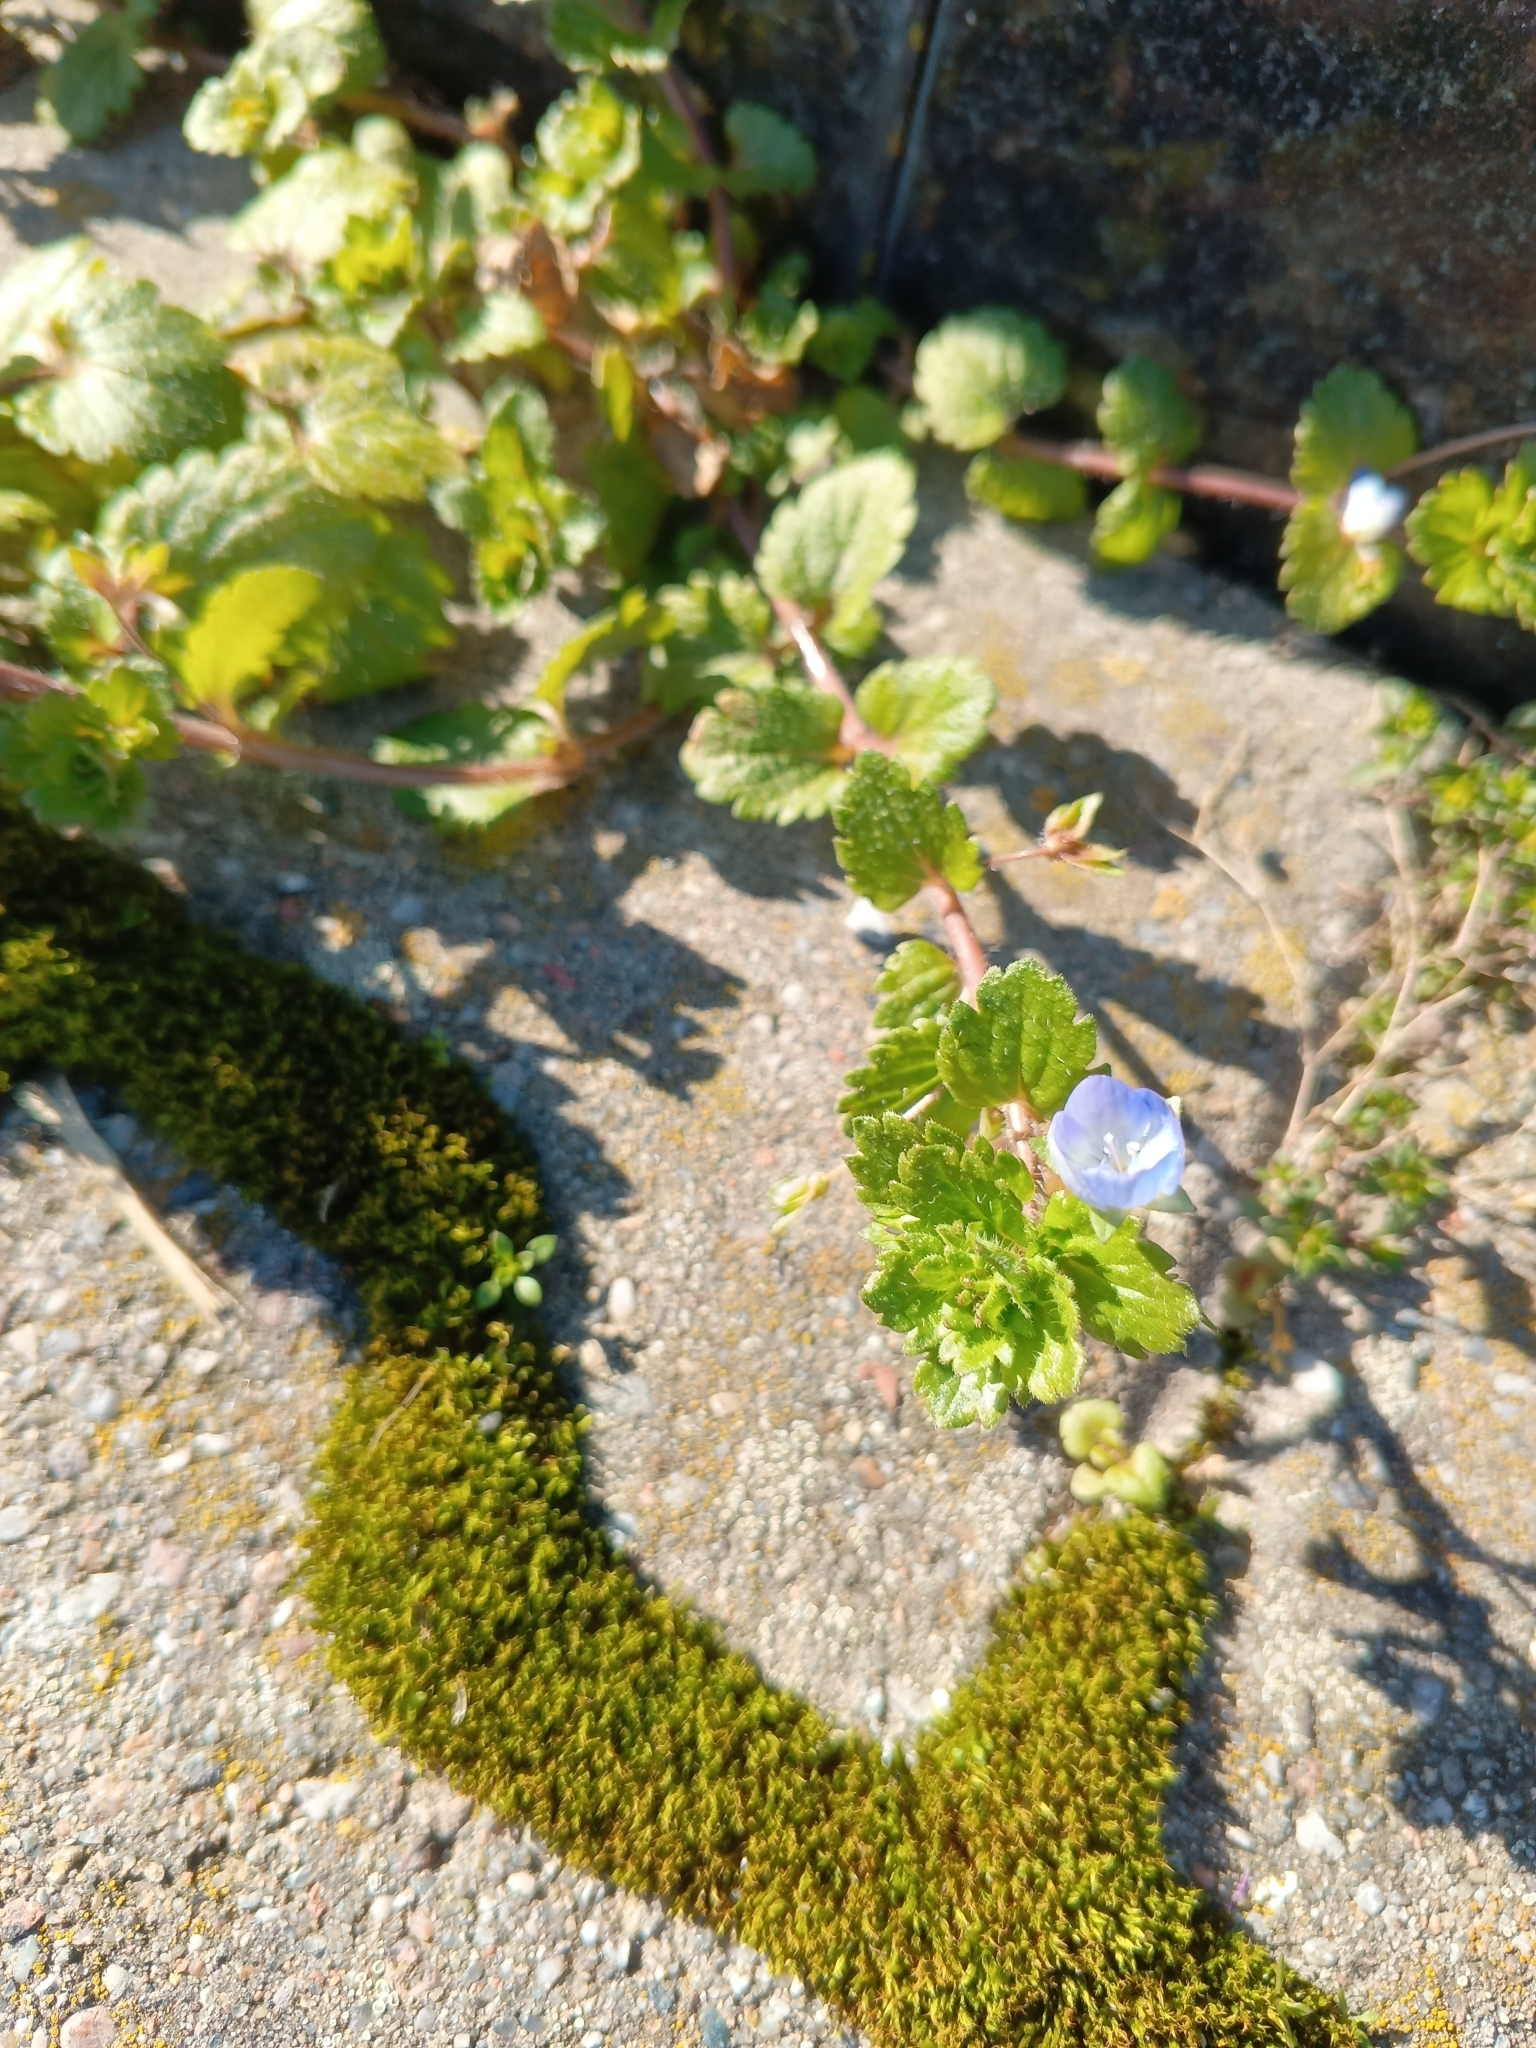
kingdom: Plantae
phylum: Tracheophyta
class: Magnoliopsida
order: Lamiales
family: Plantaginaceae
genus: Veronica
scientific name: Veronica persica
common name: Common field-speedwell
